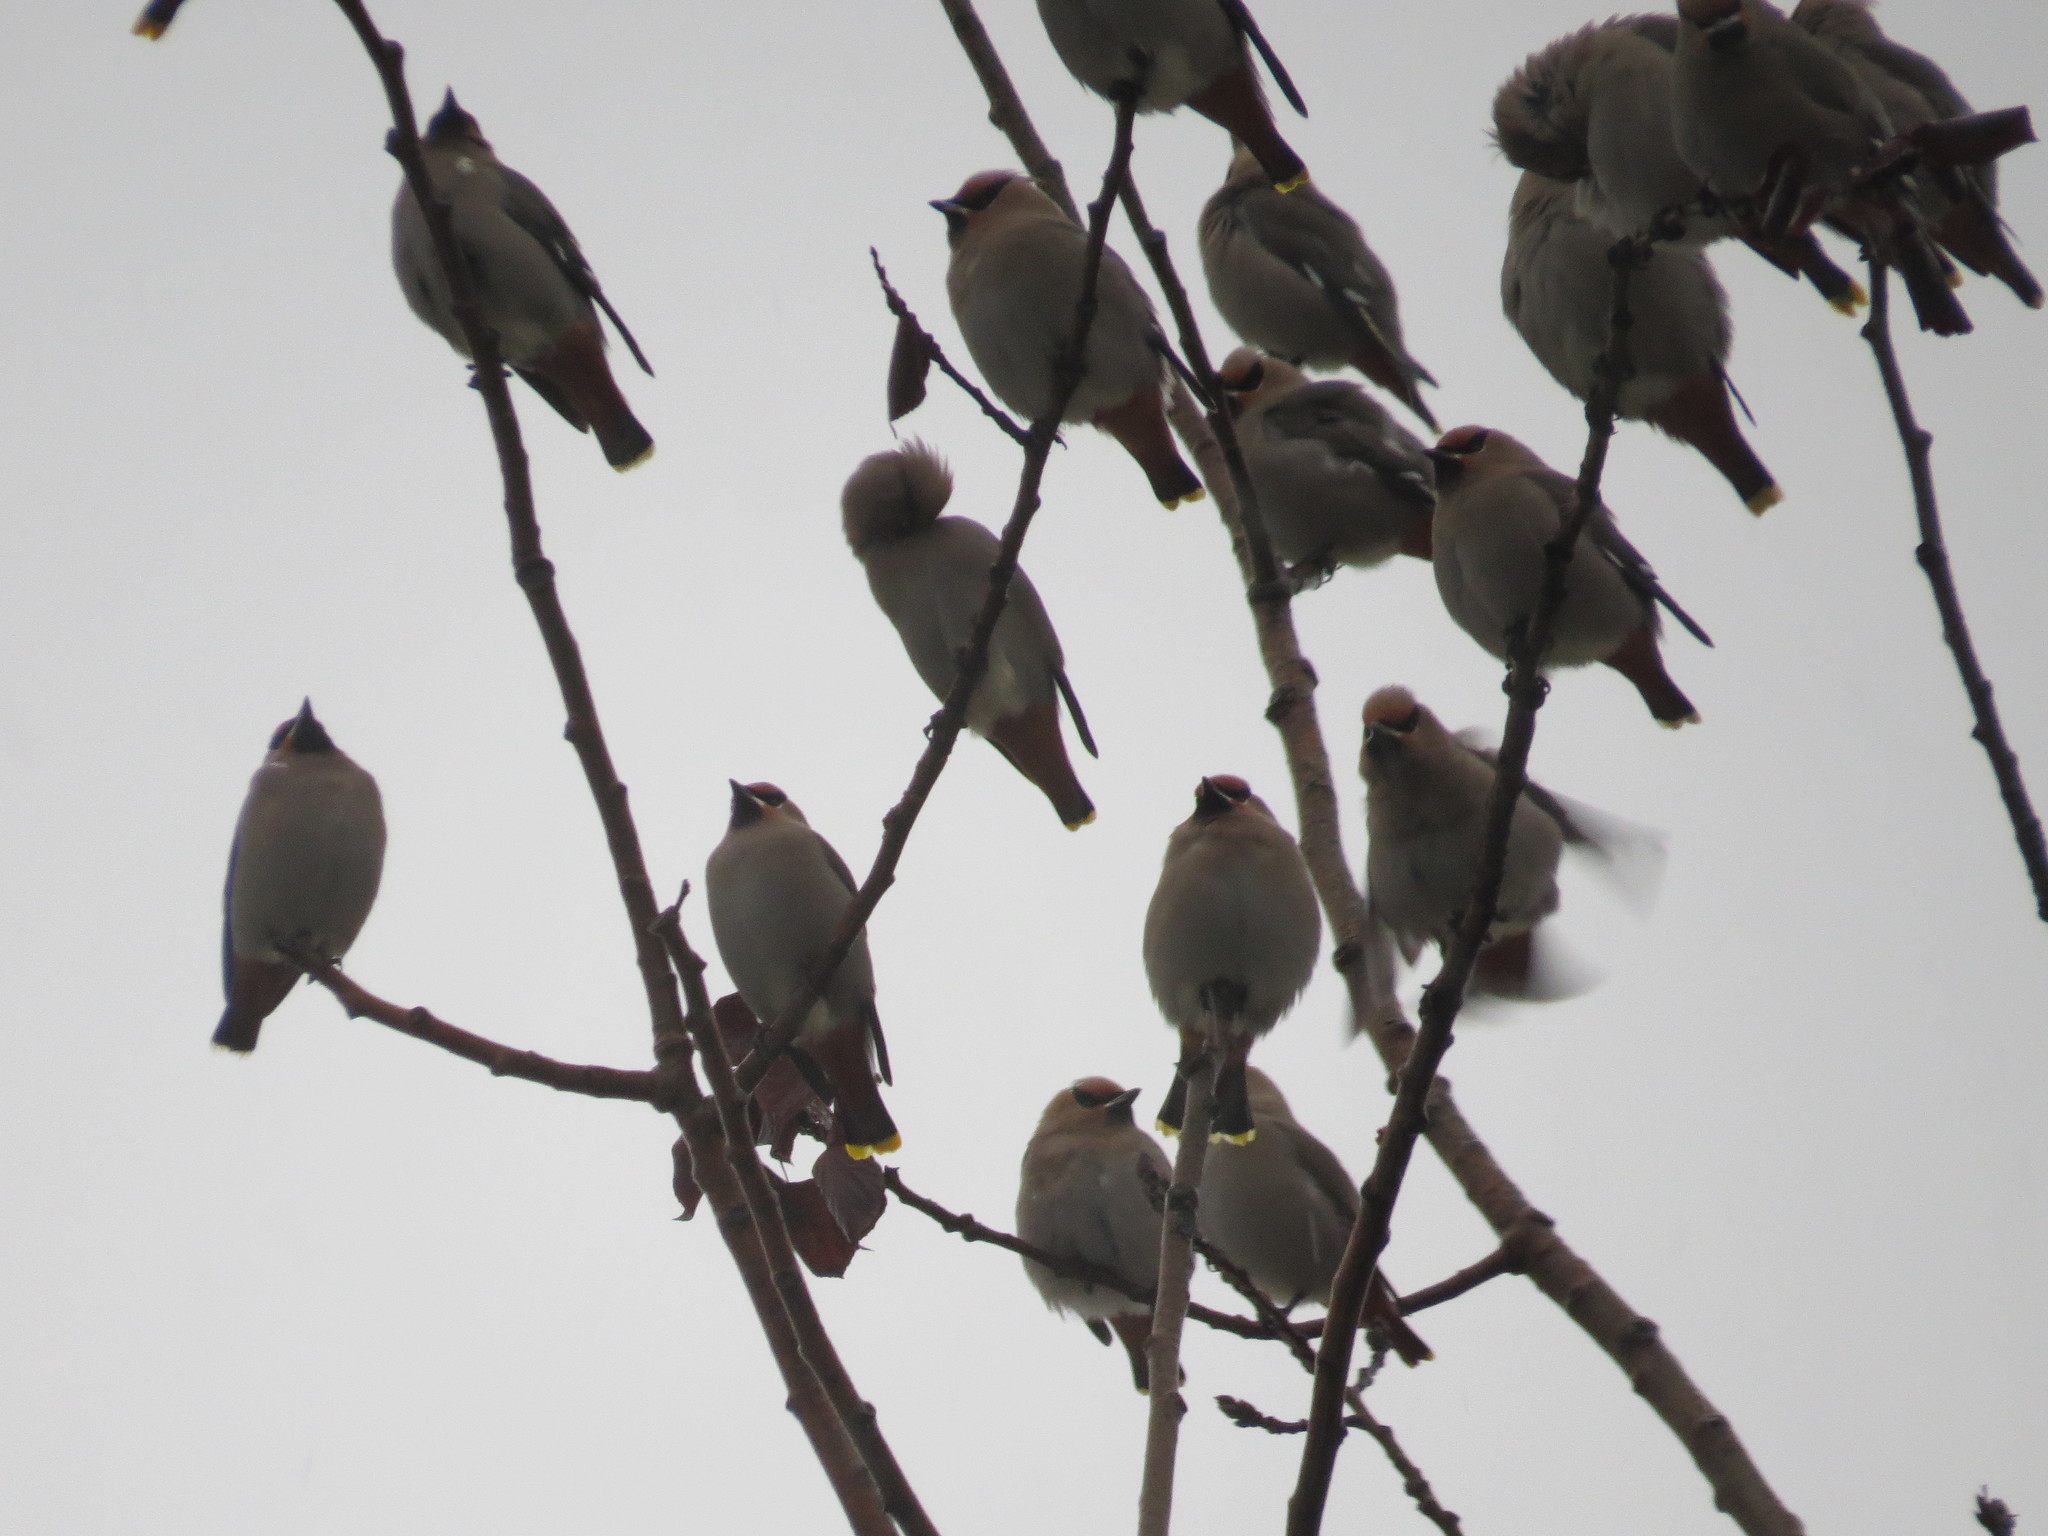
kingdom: Animalia
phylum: Chordata
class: Aves
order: Passeriformes
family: Bombycillidae
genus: Bombycilla
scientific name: Bombycilla garrulus
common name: Bohemian waxwing
